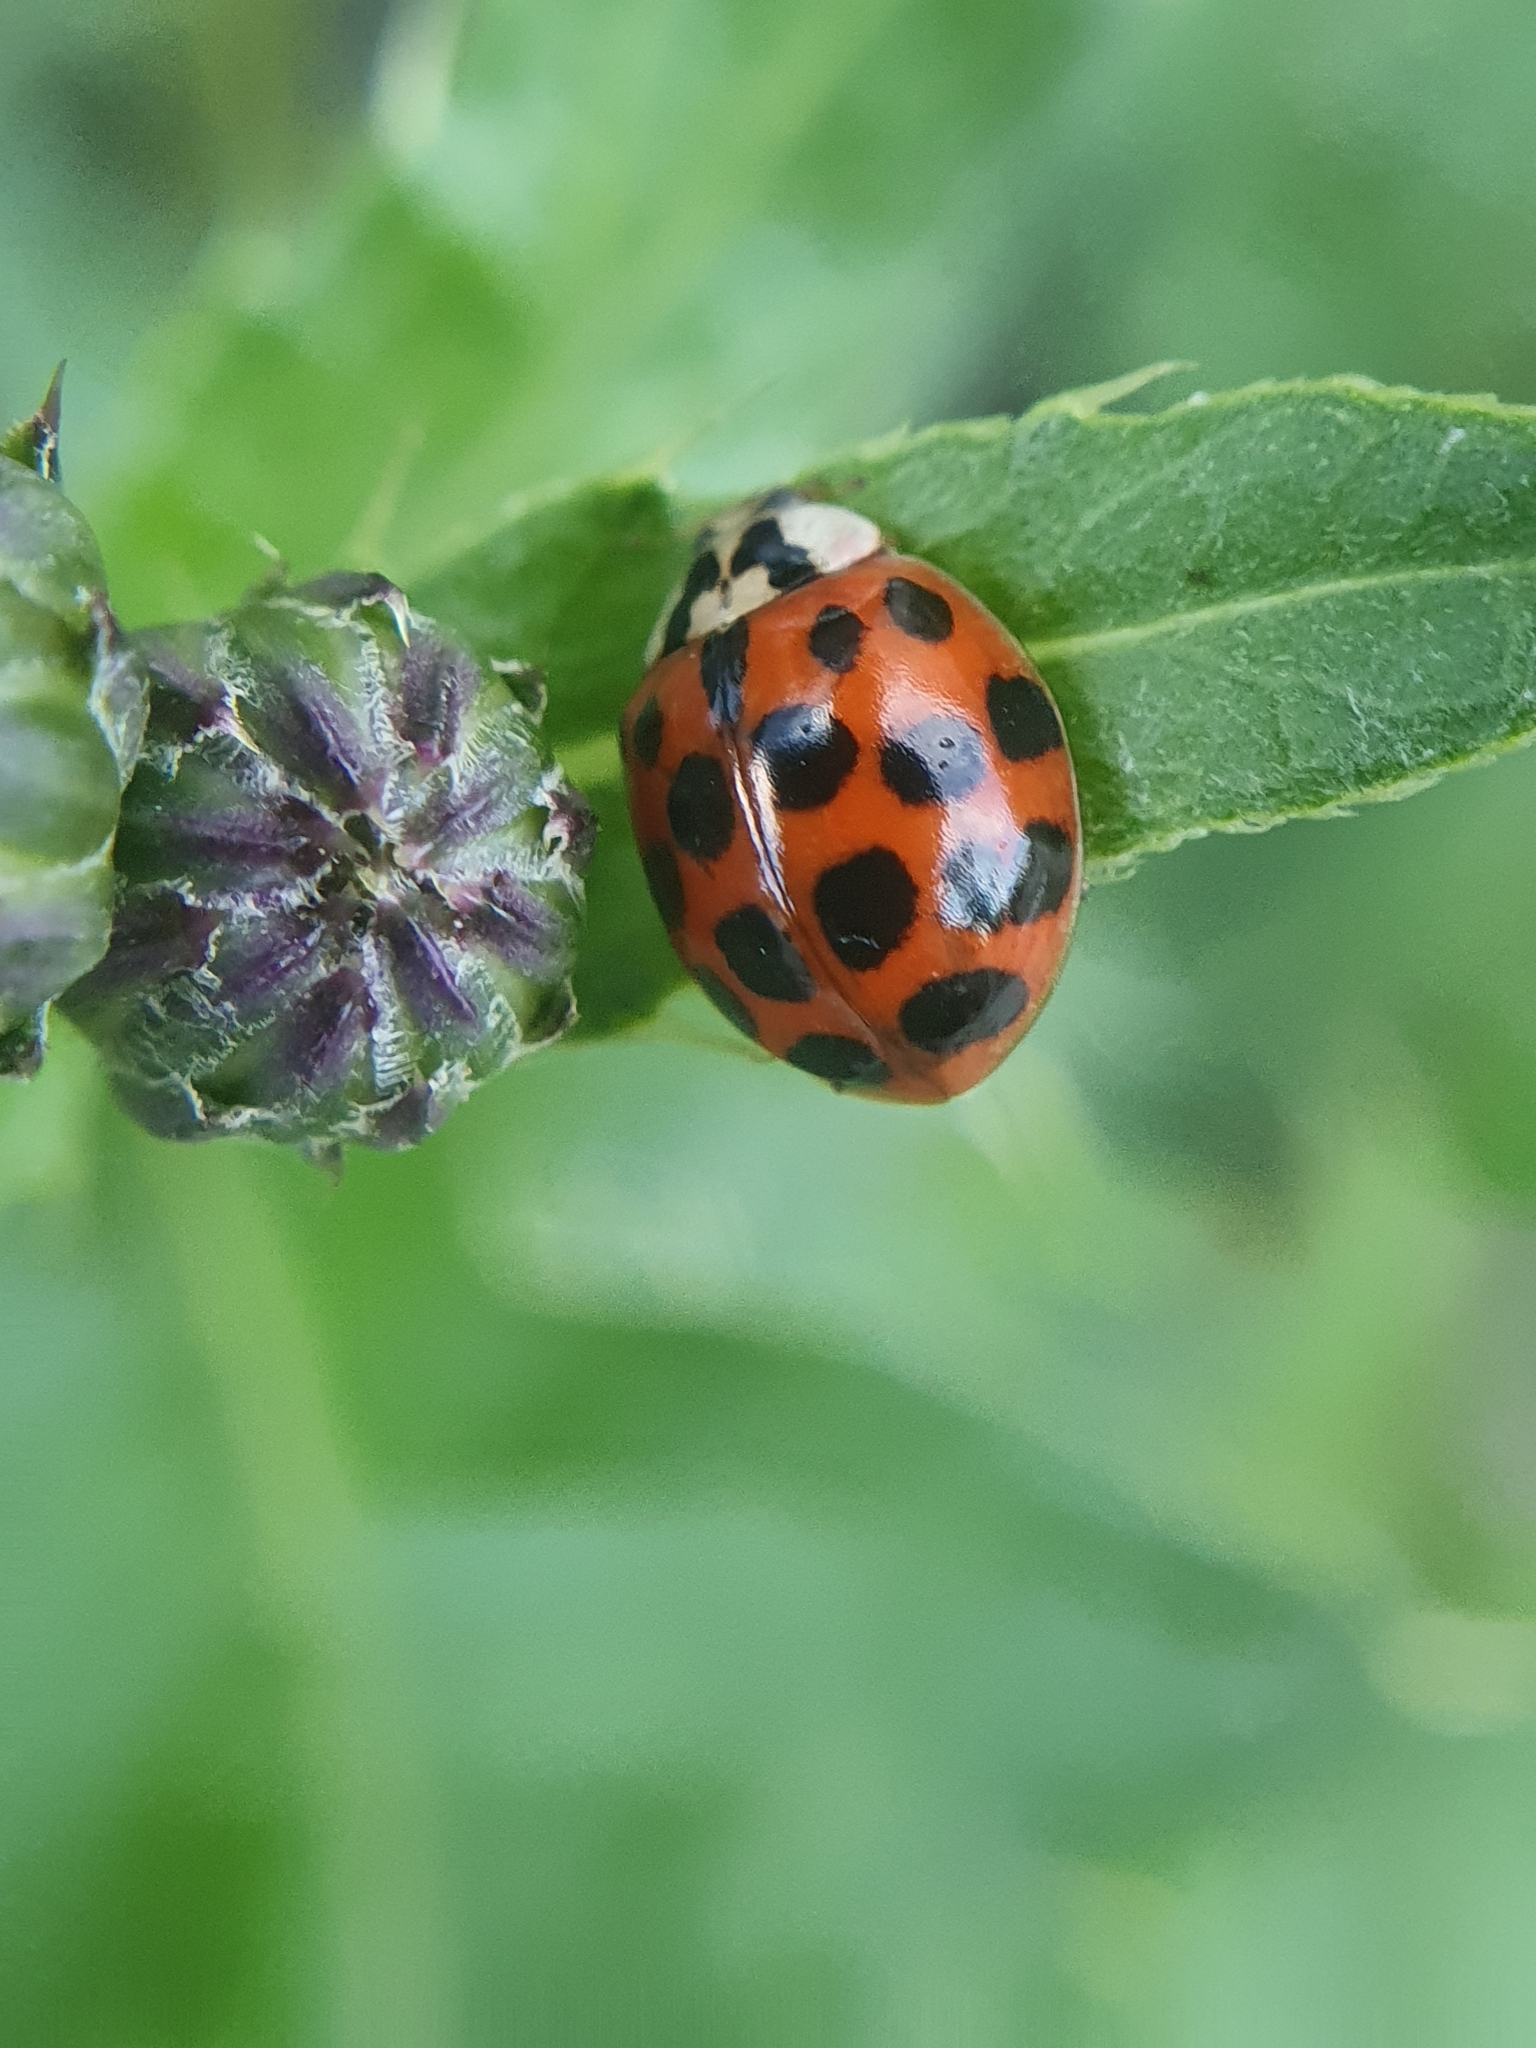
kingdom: Animalia
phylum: Arthropoda
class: Insecta
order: Coleoptera
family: Coccinellidae
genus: Harmonia
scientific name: Harmonia axyridis
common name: Harlequin ladybird
